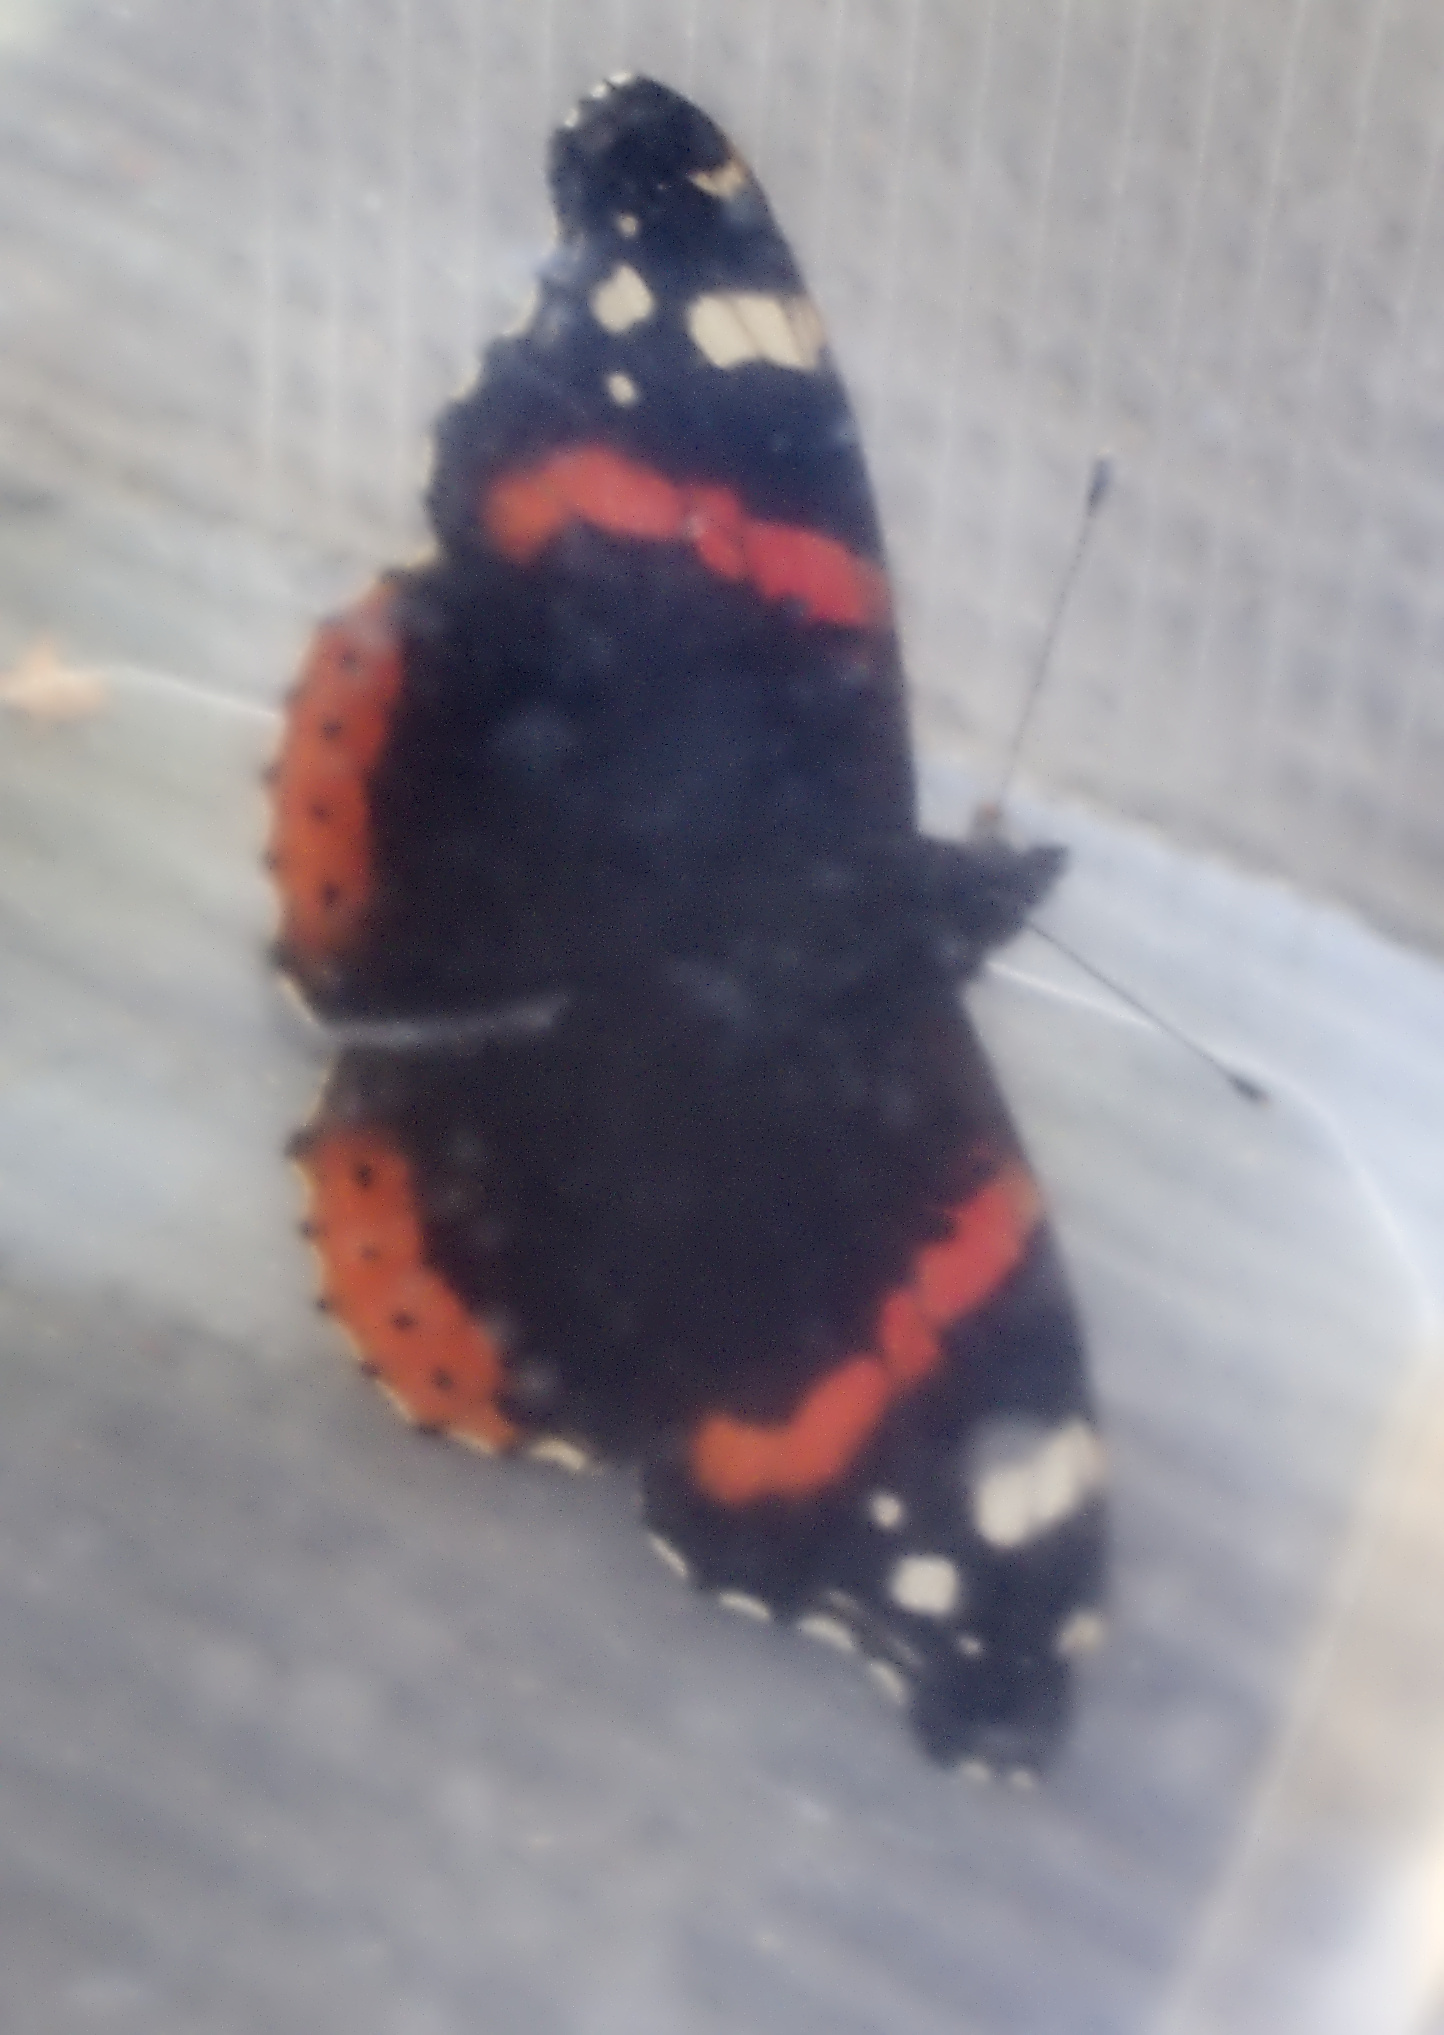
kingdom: Animalia
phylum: Arthropoda
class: Insecta
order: Lepidoptera
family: Nymphalidae
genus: Vanessa
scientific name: Vanessa atalanta
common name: Red admiral
